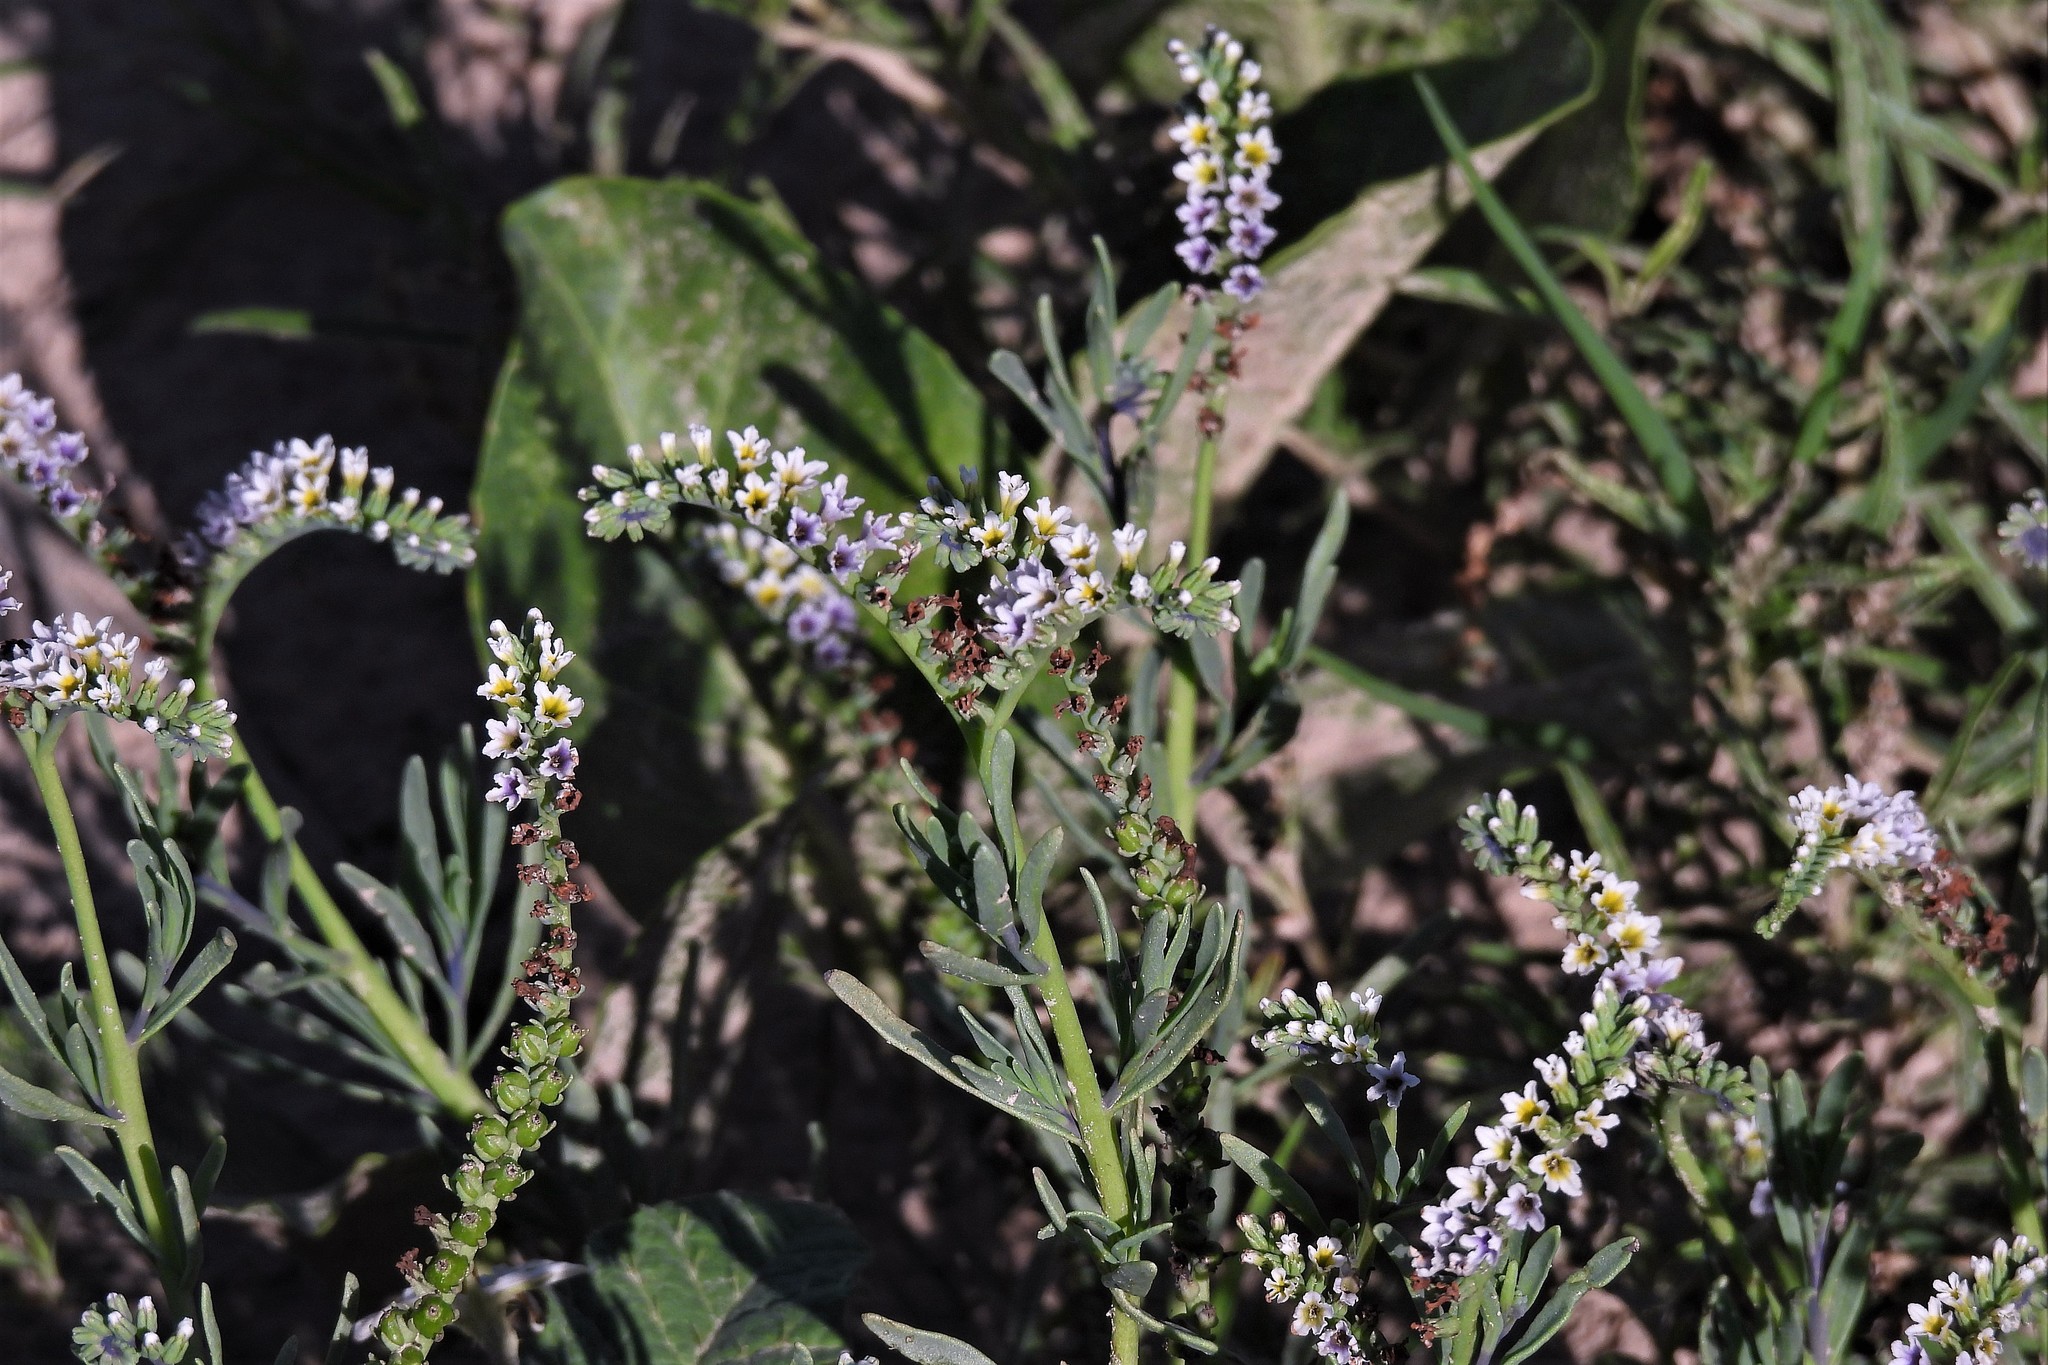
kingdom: Plantae
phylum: Tracheophyta
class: Magnoliopsida
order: Boraginales
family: Heliotropiaceae
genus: Heliotropium
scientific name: Heliotropium curassavicum
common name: Seaside heliotrope
